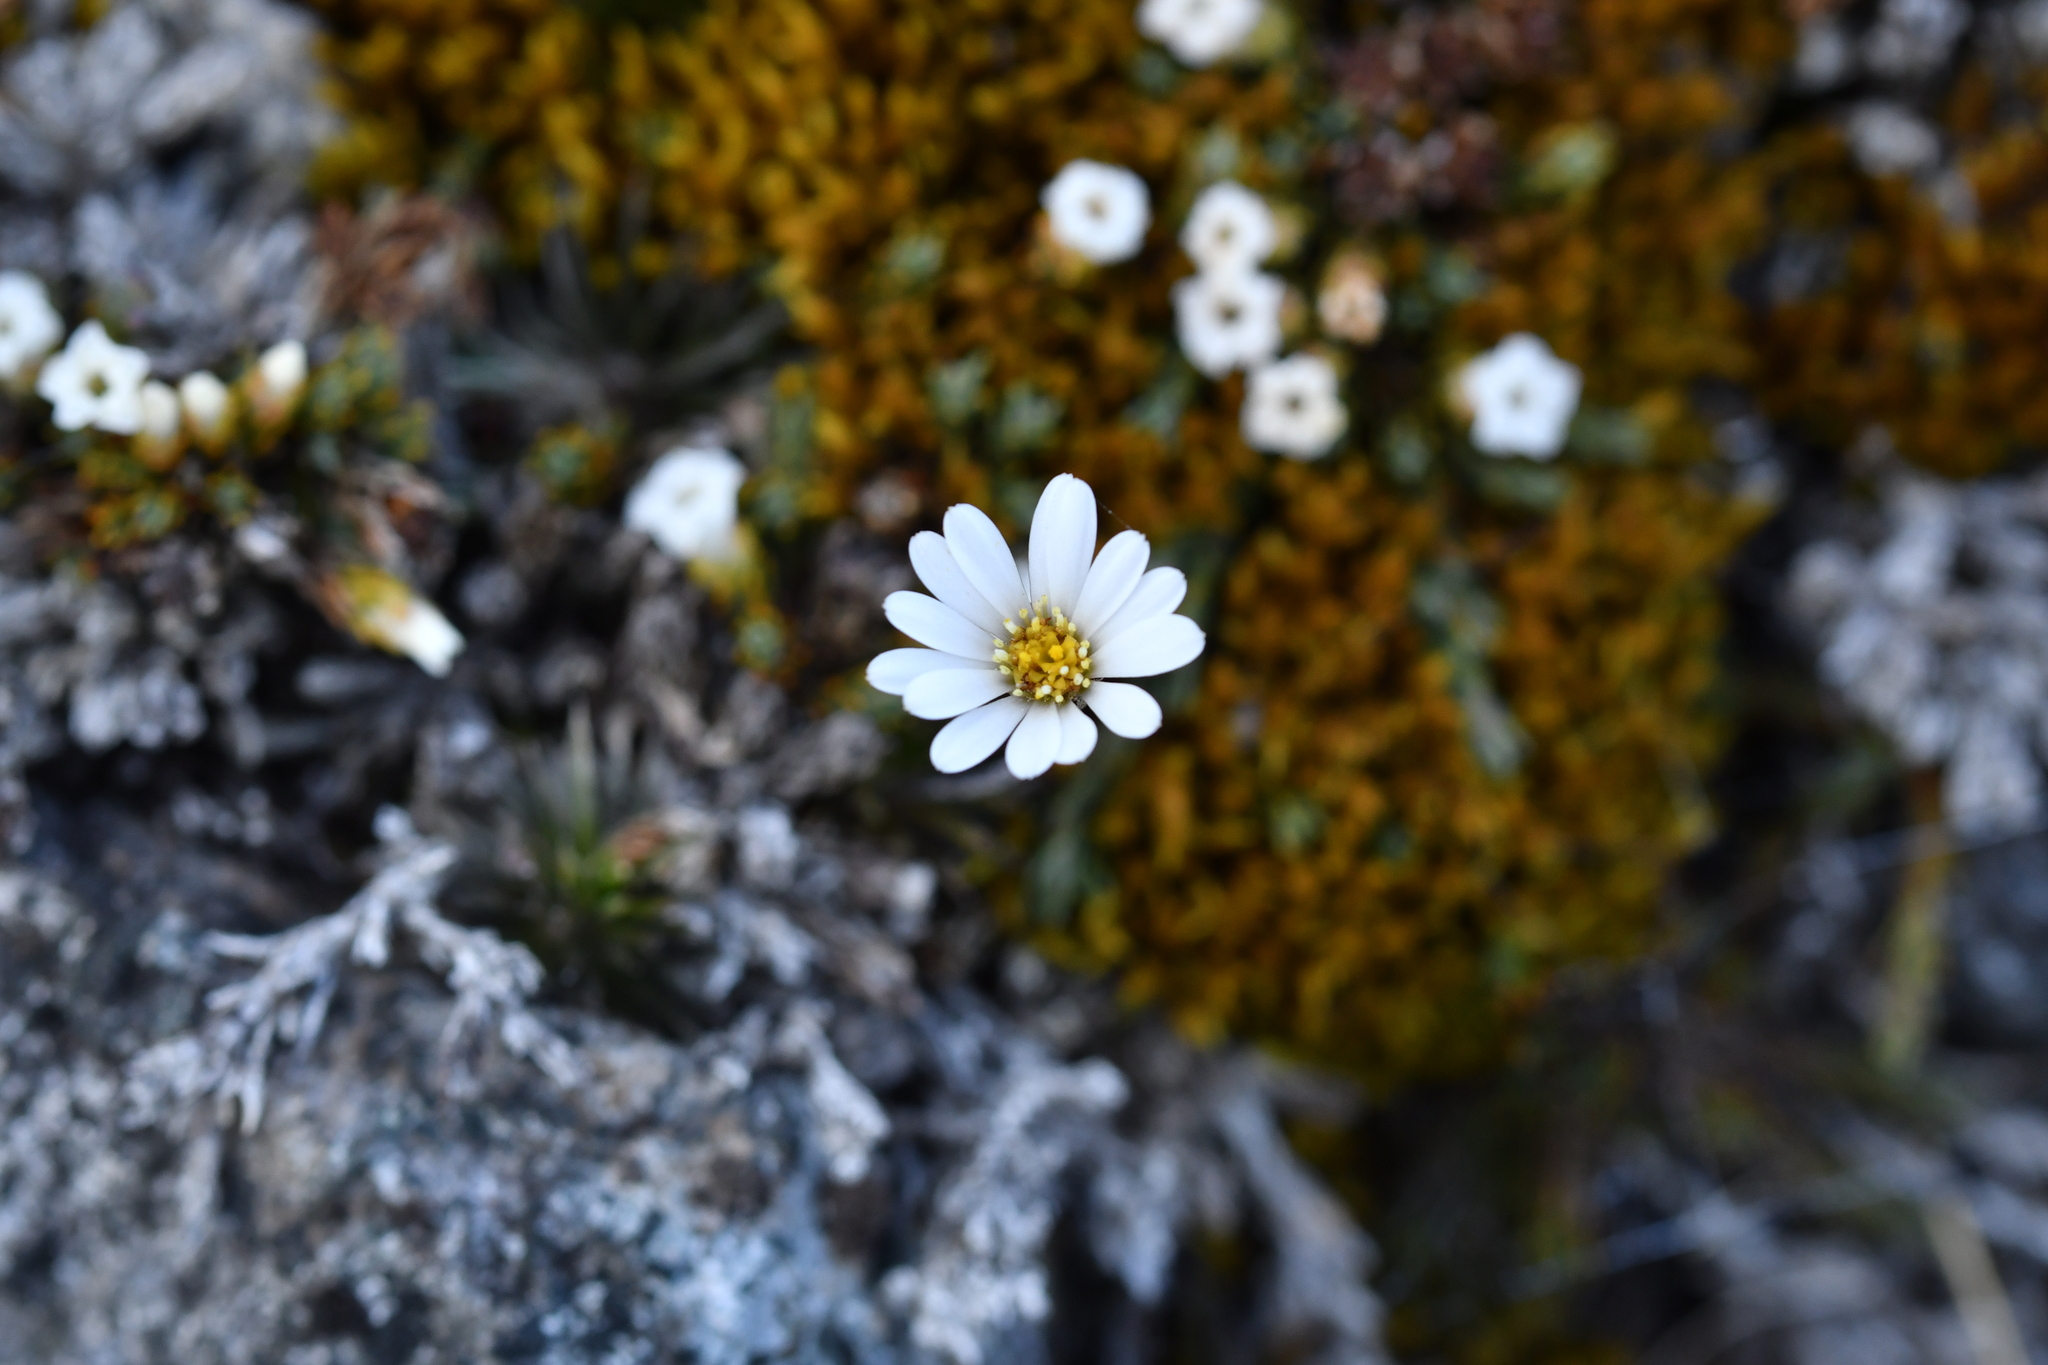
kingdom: Plantae
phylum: Tracheophyta
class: Magnoliopsida
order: Asterales
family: Asteraceae
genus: Celmisia
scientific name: Celmisia laricifolia
